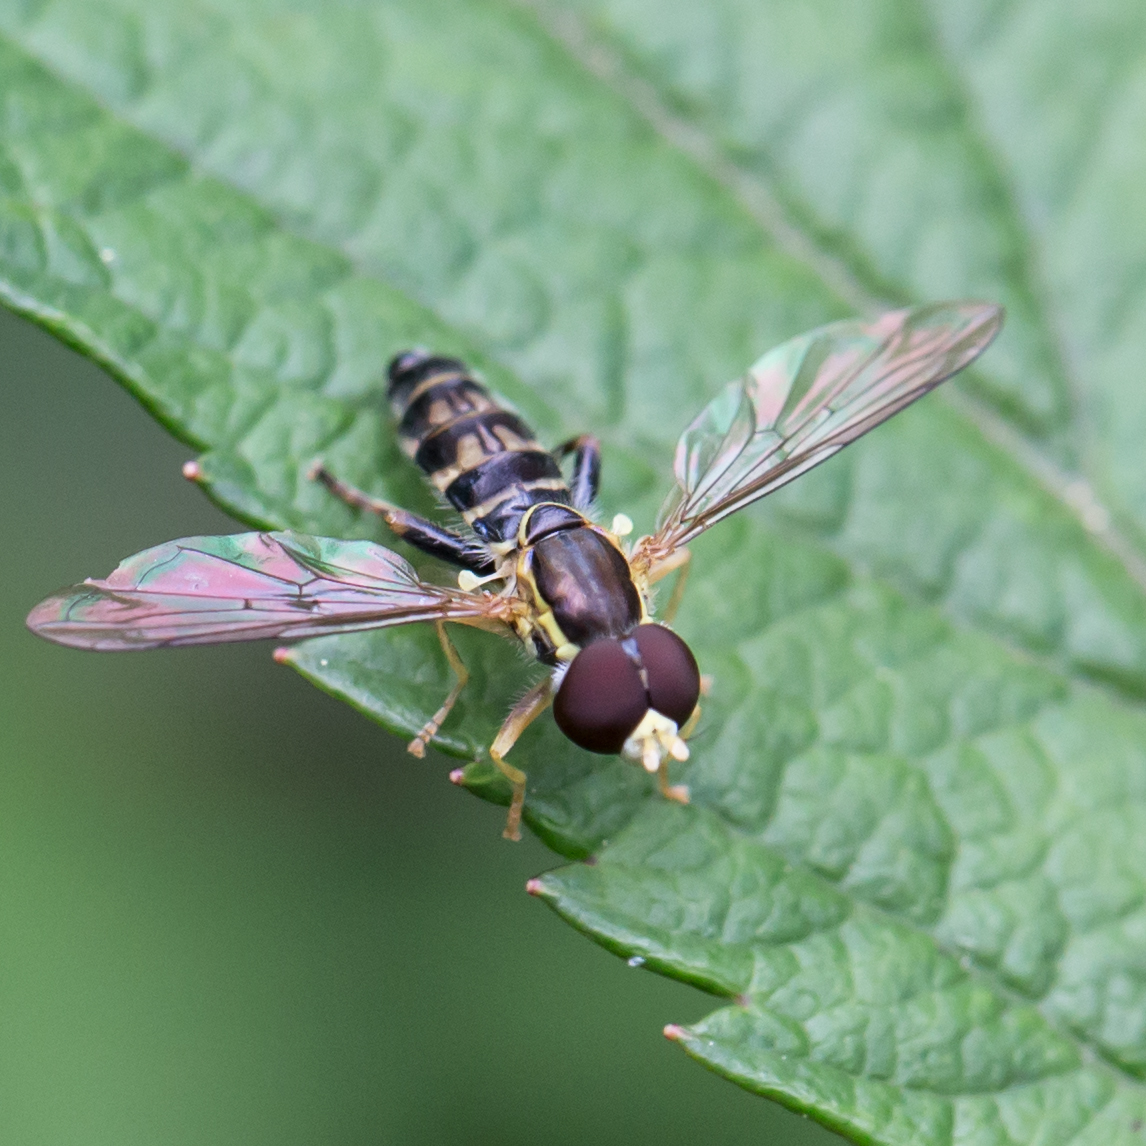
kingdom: Animalia
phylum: Arthropoda
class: Insecta
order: Diptera
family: Syrphidae
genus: Toxomerus
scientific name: Toxomerus geminatus
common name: Eastern calligrapher
